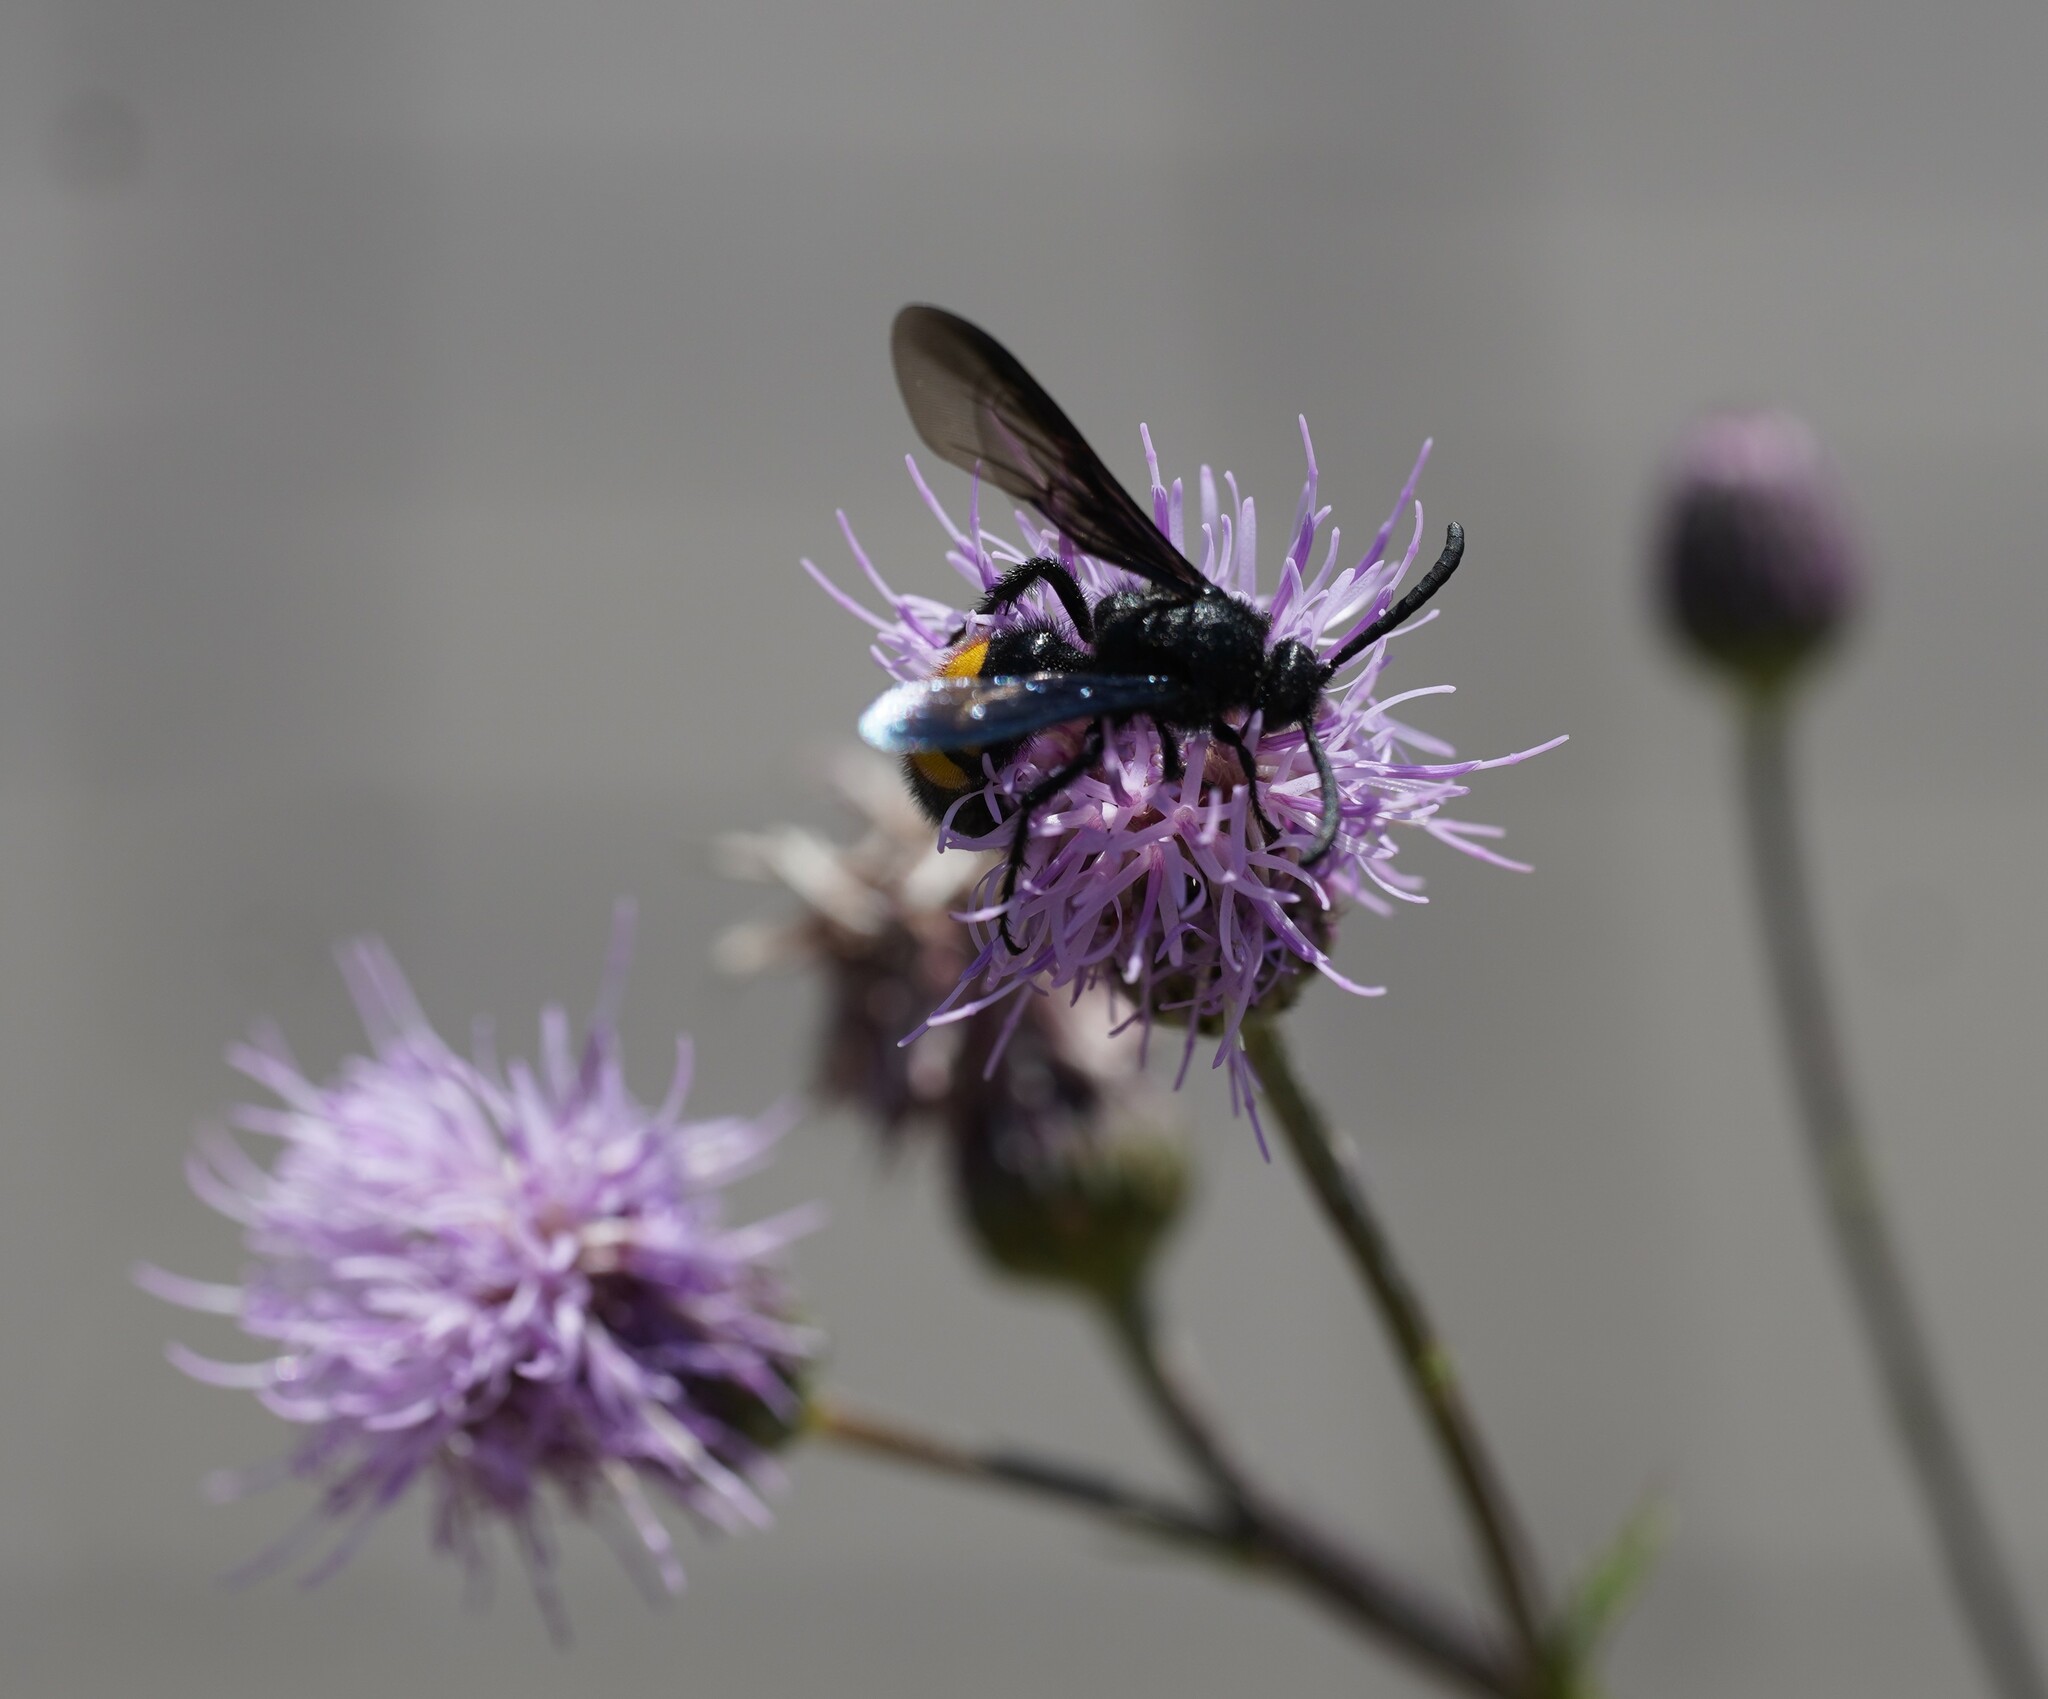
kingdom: Animalia
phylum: Arthropoda
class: Insecta
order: Hymenoptera
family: Scoliidae
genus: Scolia
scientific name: Scolia hirta
